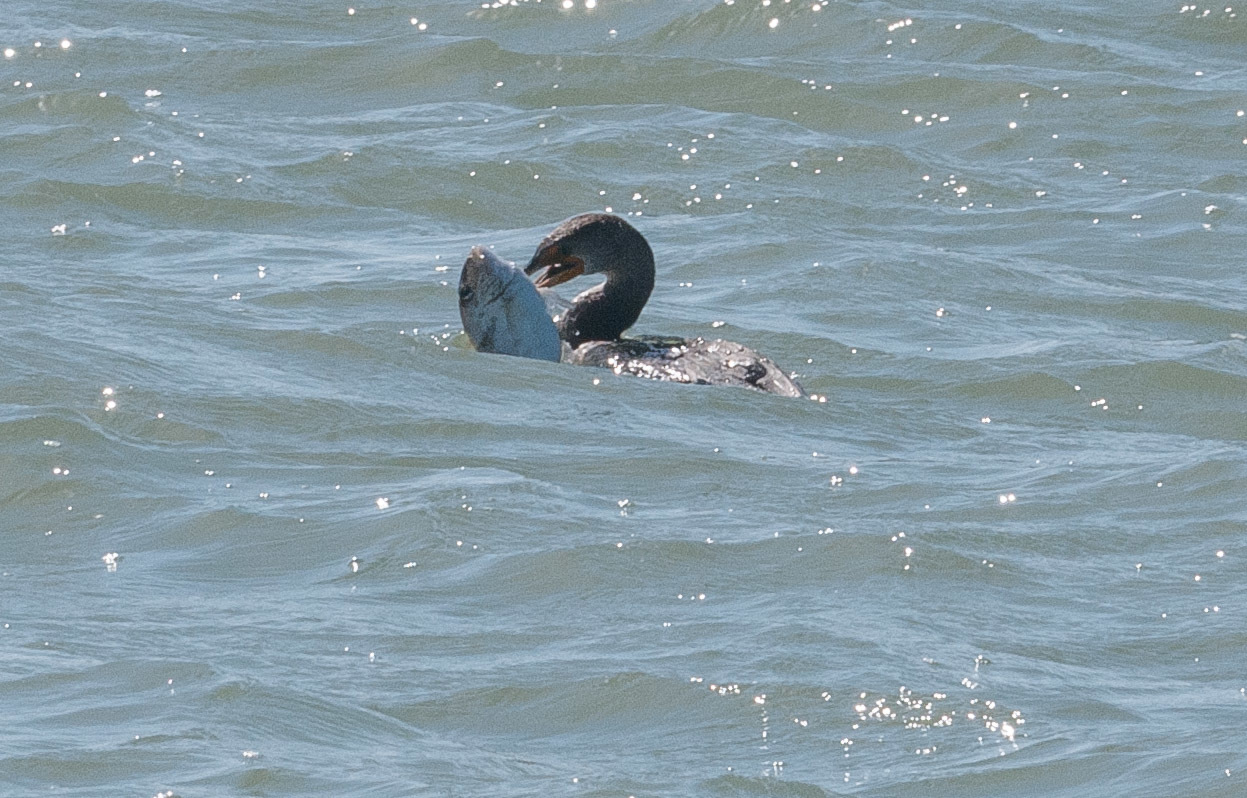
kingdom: Animalia
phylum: Chordata
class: Aves
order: Suliformes
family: Phalacrocoracidae
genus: Phalacrocorax
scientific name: Phalacrocorax auritus
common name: Double-crested cormorant
